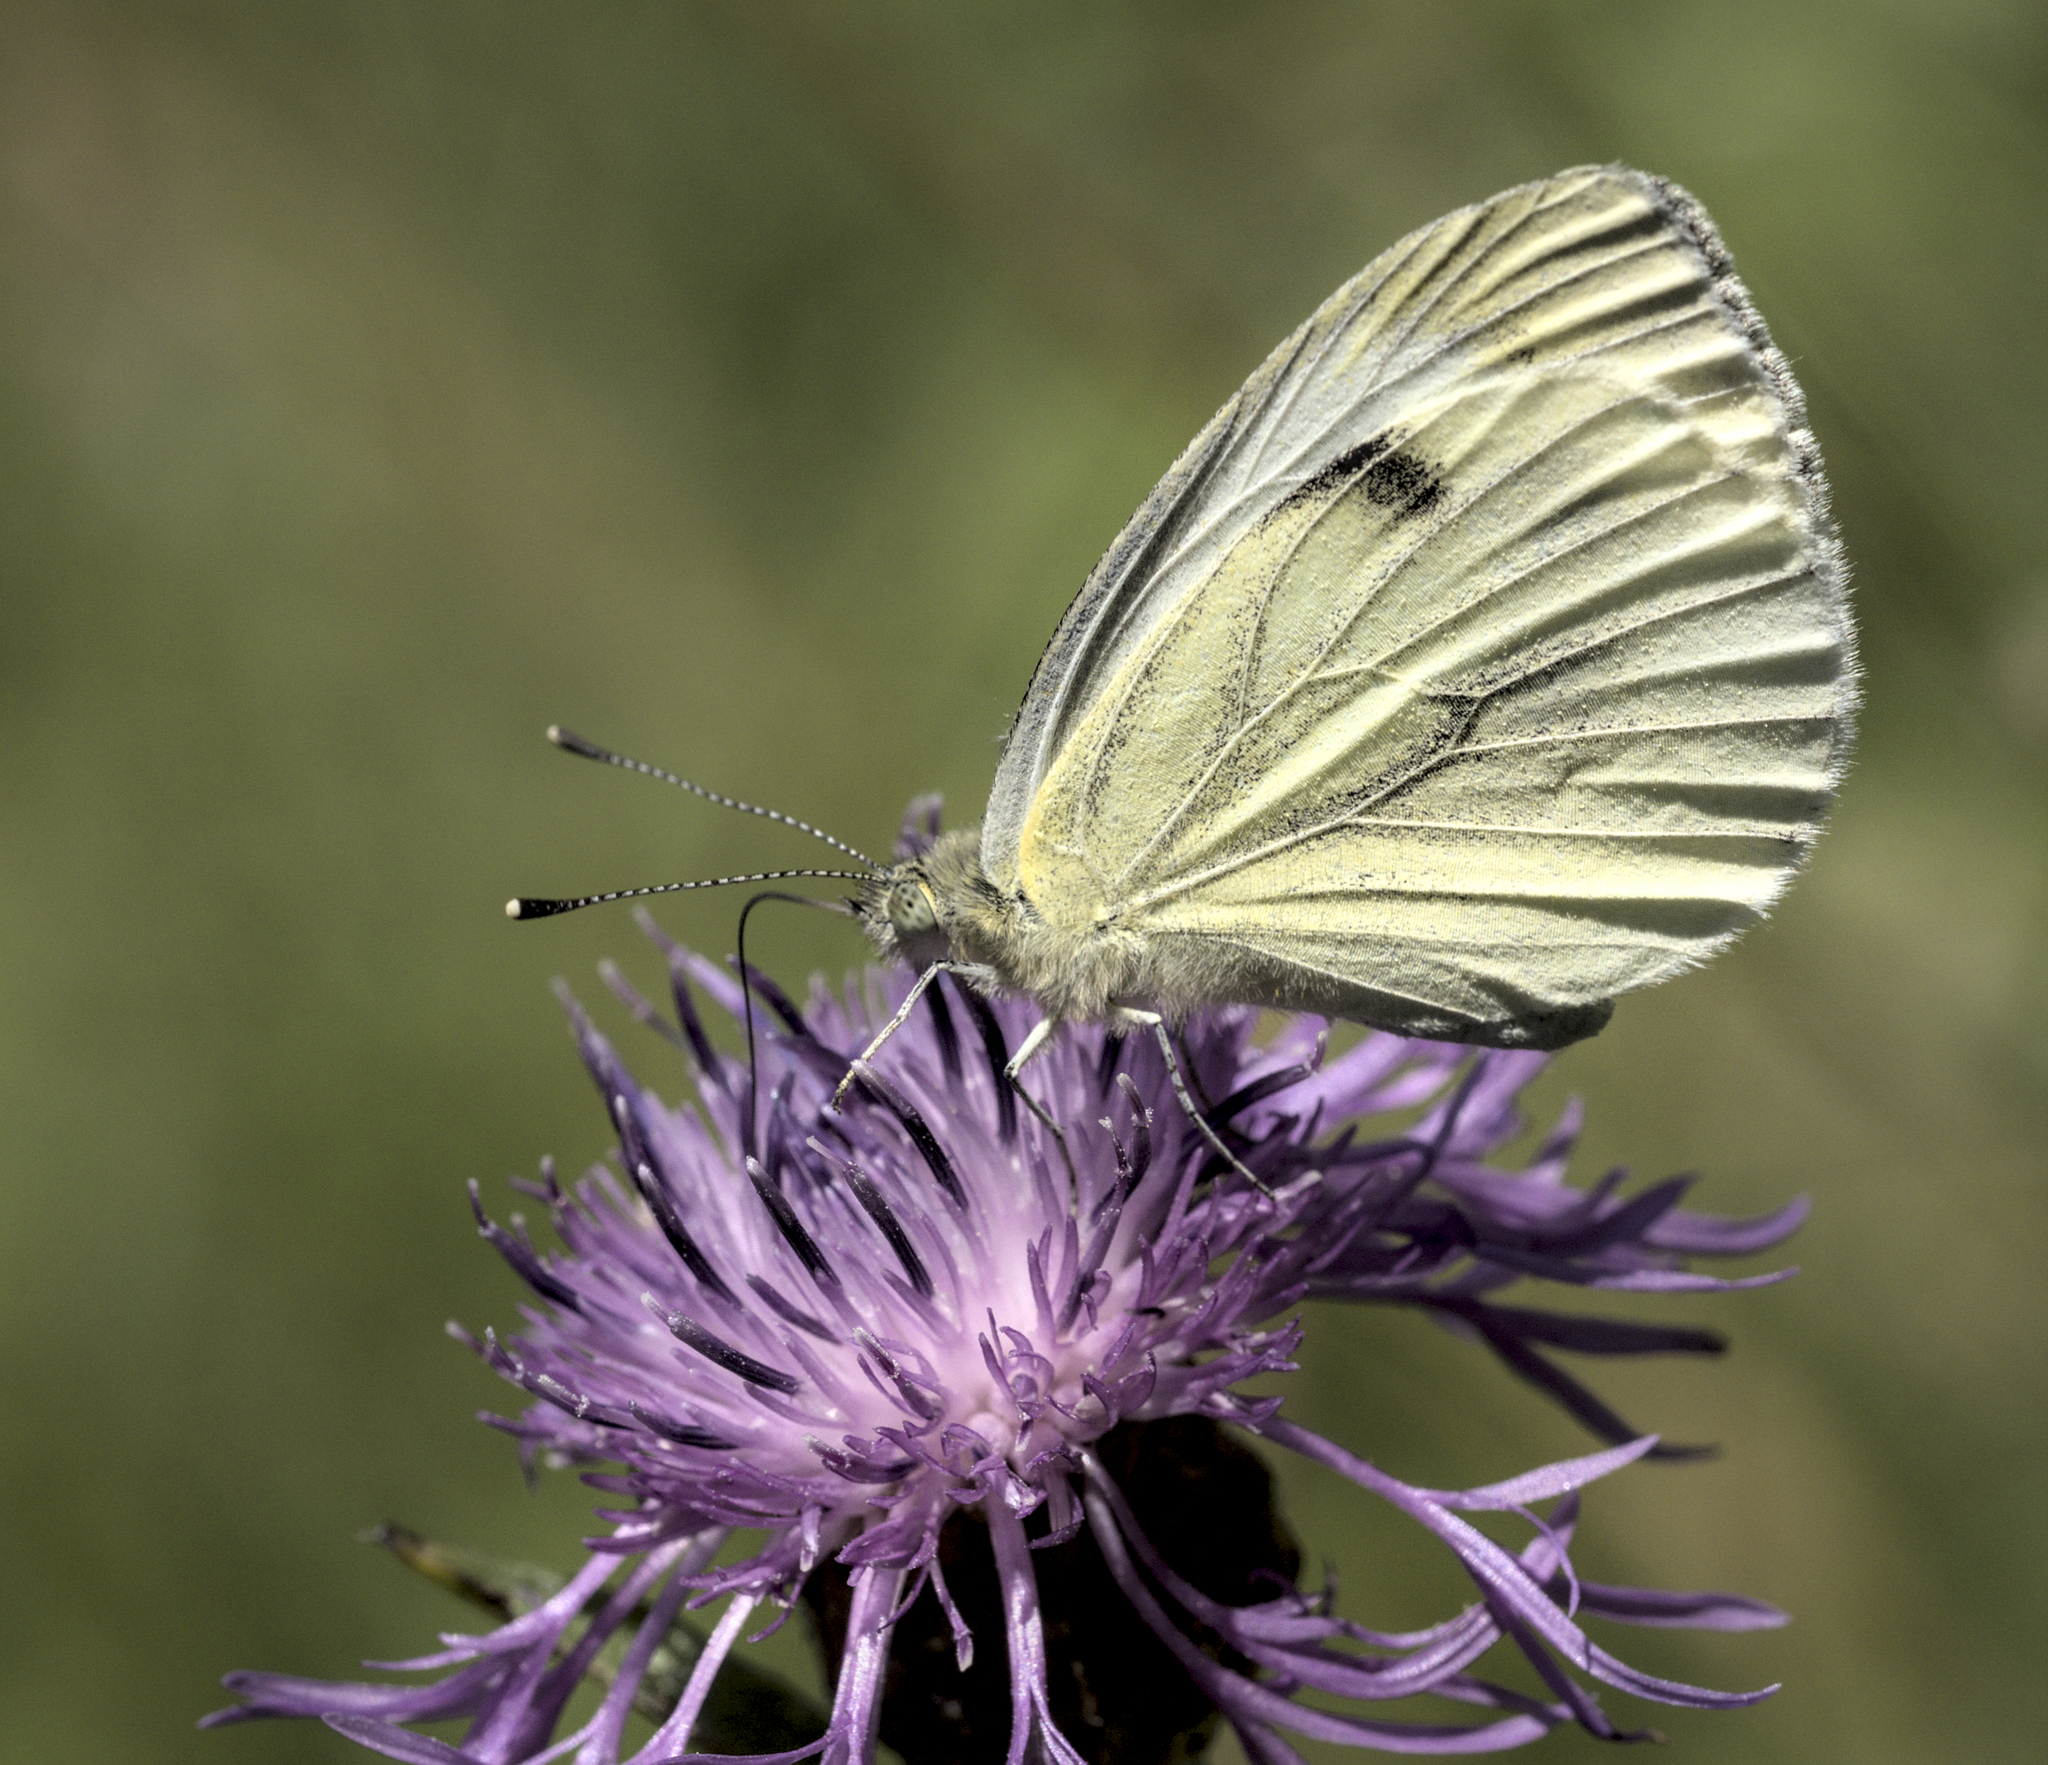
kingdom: Animalia
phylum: Arthropoda
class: Insecta
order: Lepidoptera
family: Pieridae
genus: Pieris
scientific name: Pieris napi
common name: Green-veined white
